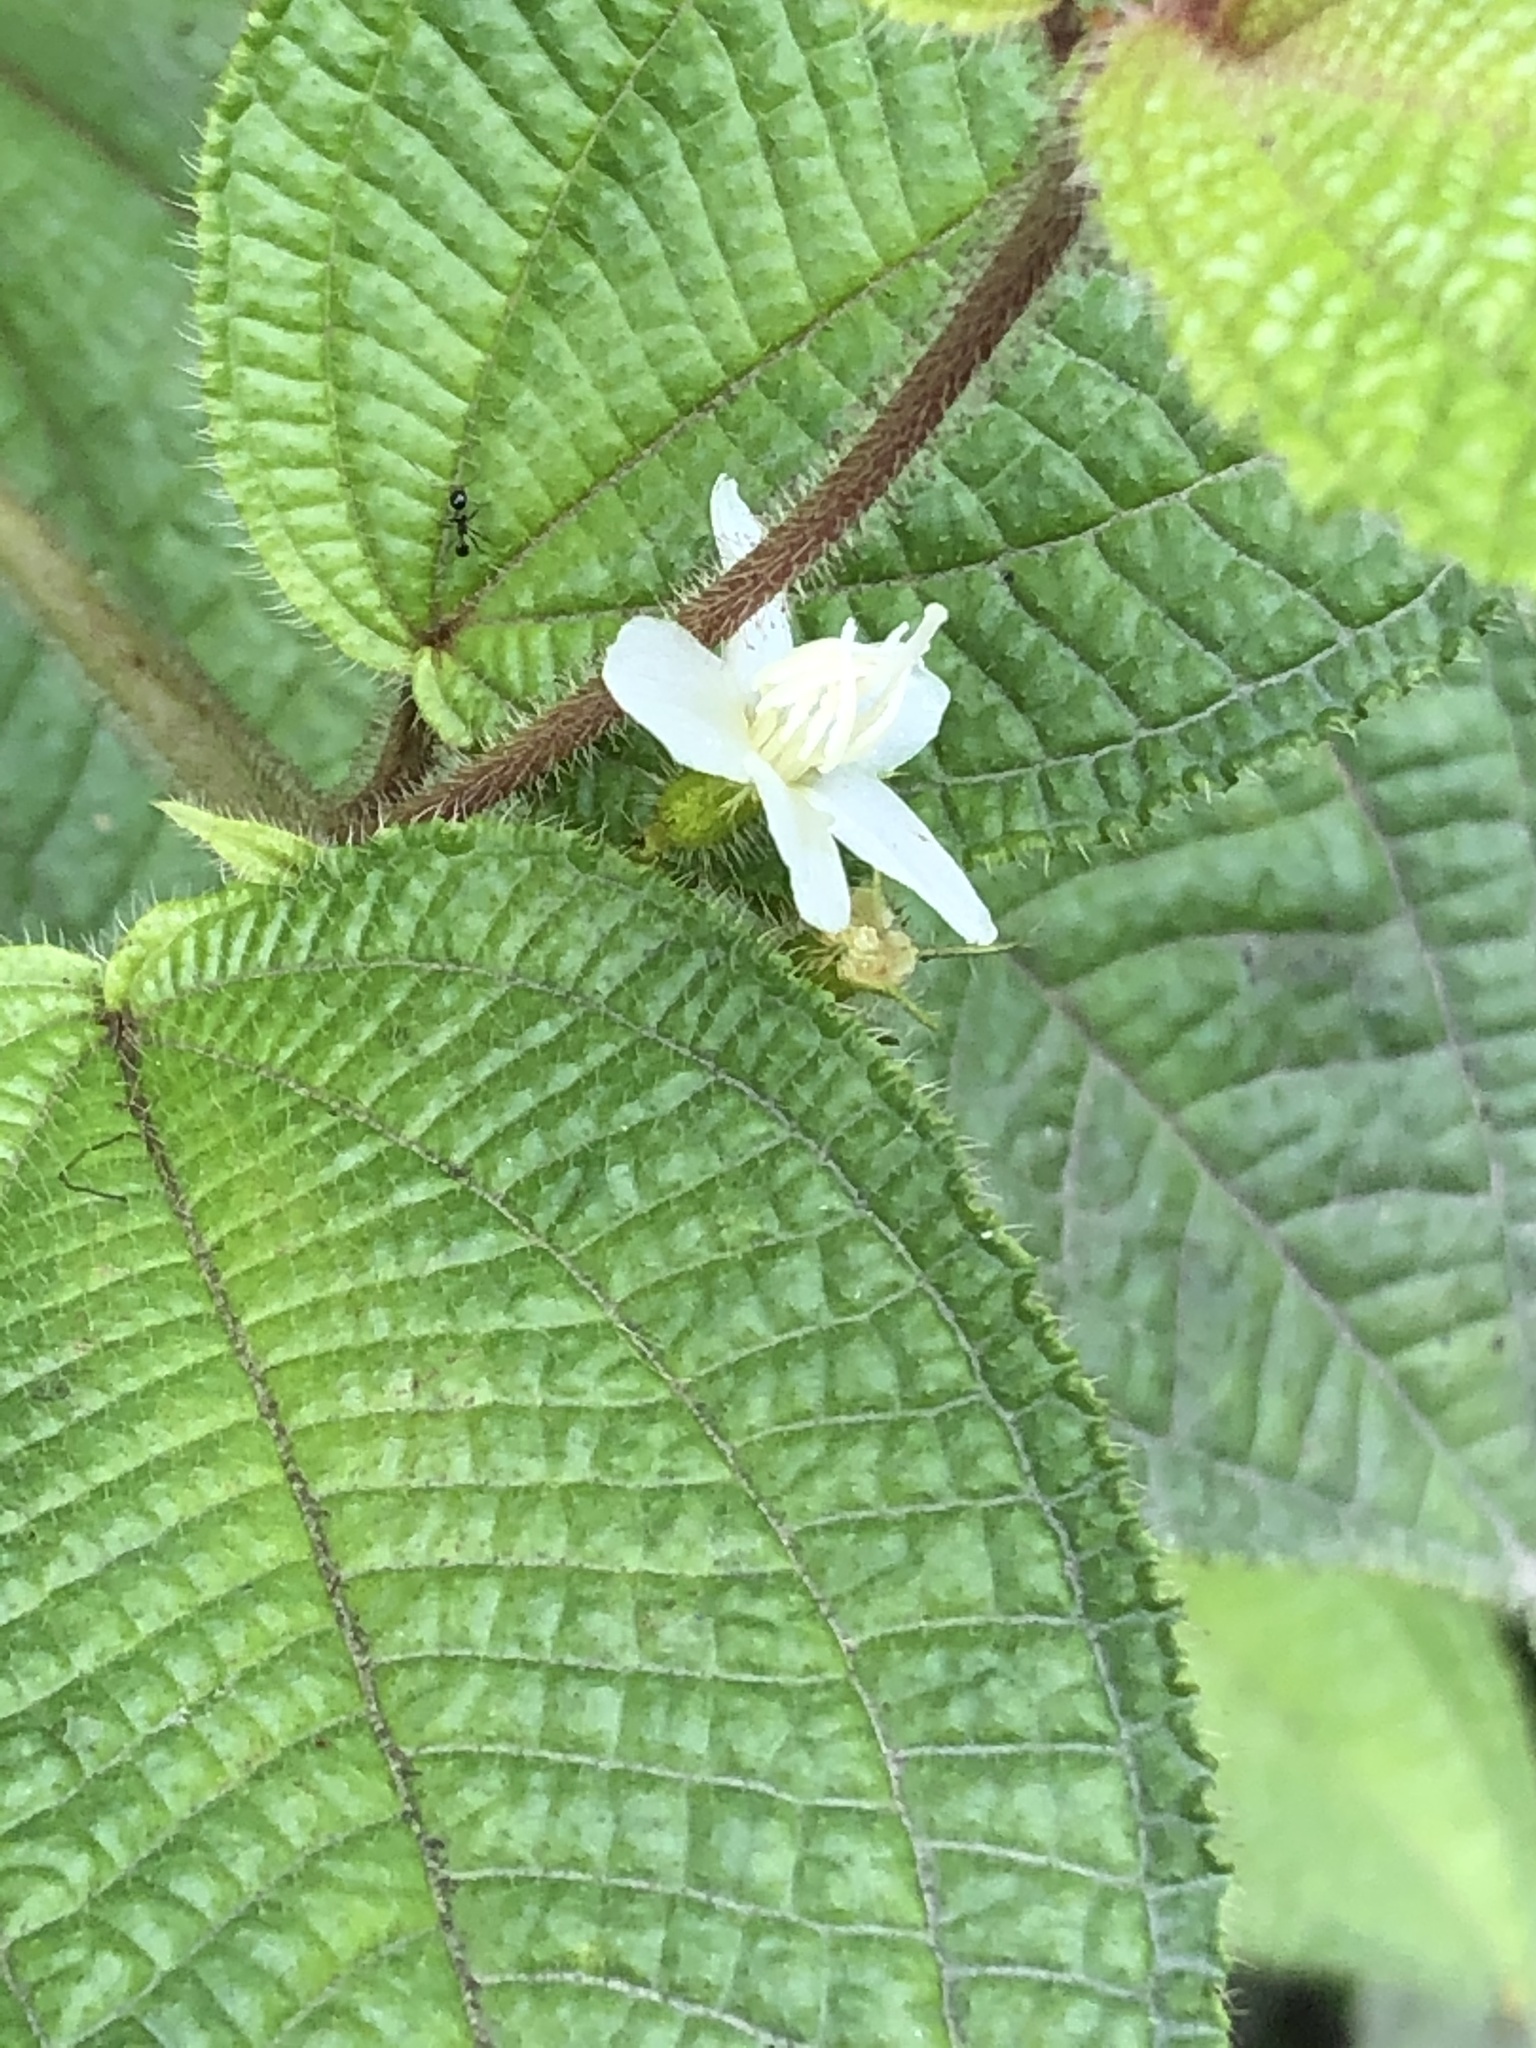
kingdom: Plantae
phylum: Tracheophyta
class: Magnoliopsida
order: Myrtales
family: Melastomataceae
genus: Miconia
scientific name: Miconia crenata
